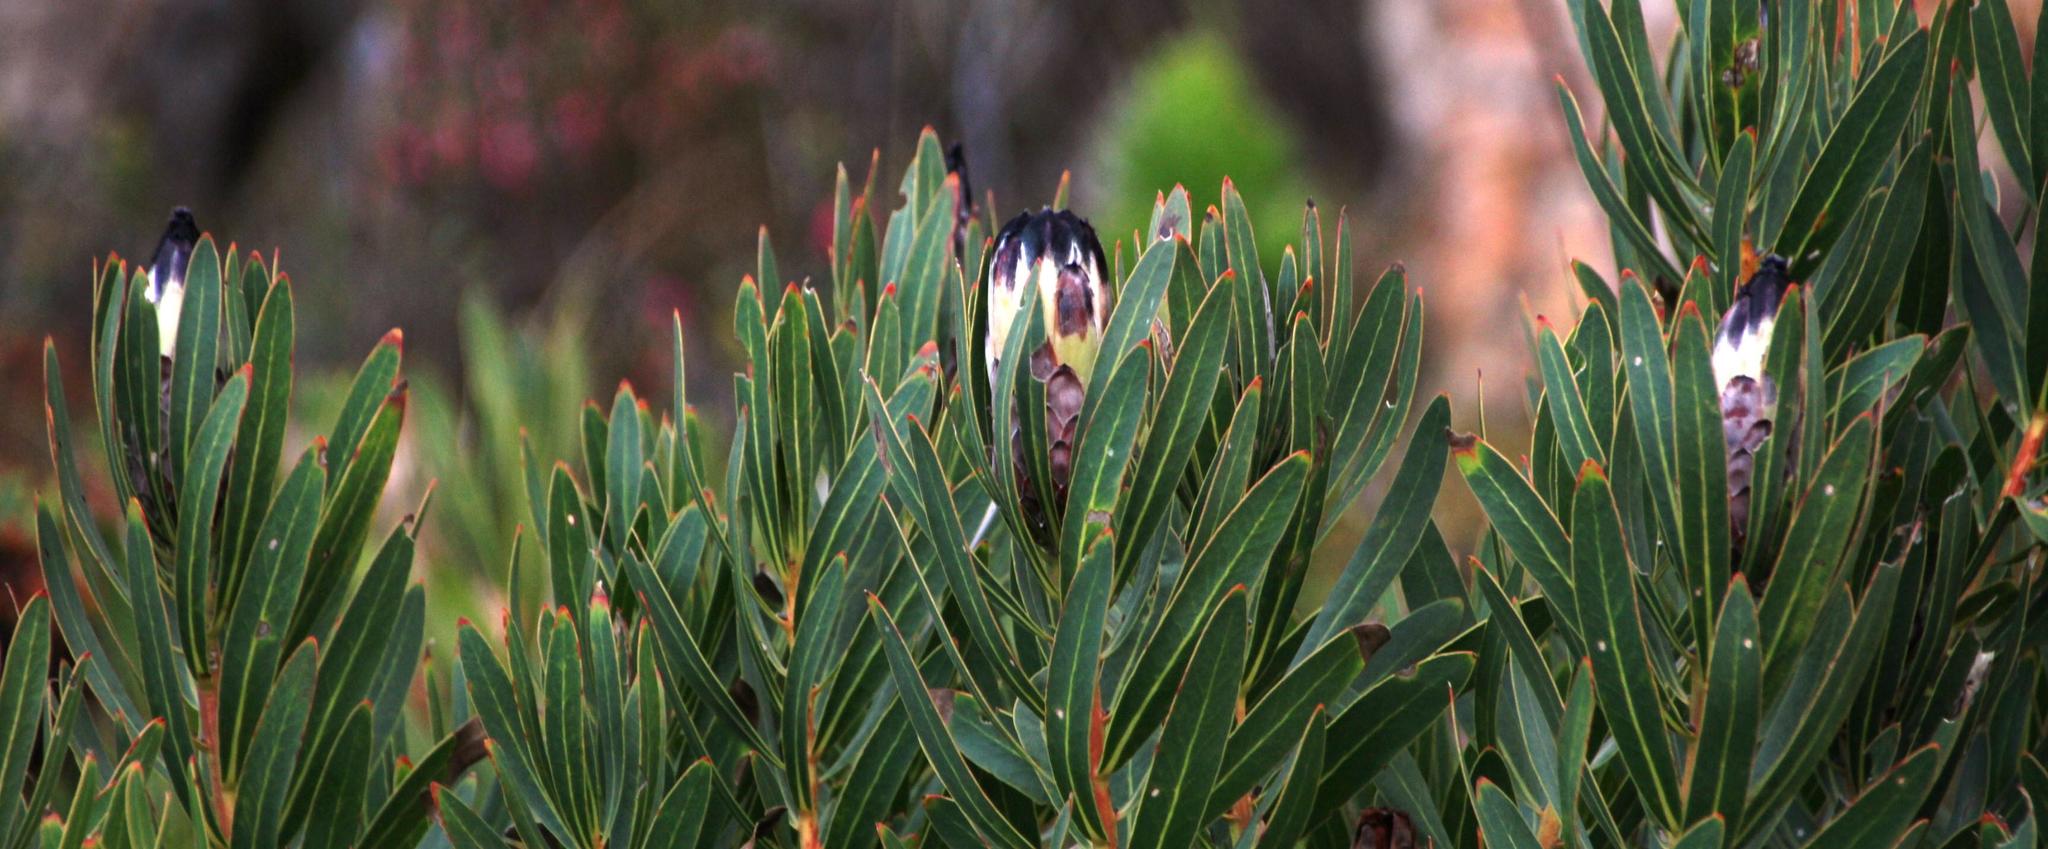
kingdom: Plantae
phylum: Tracheophyta
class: Magnoliopsida
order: Proteales
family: Proteaceae
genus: Protea
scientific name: Protea lepidocarpodendron
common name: Black-bearded protea
